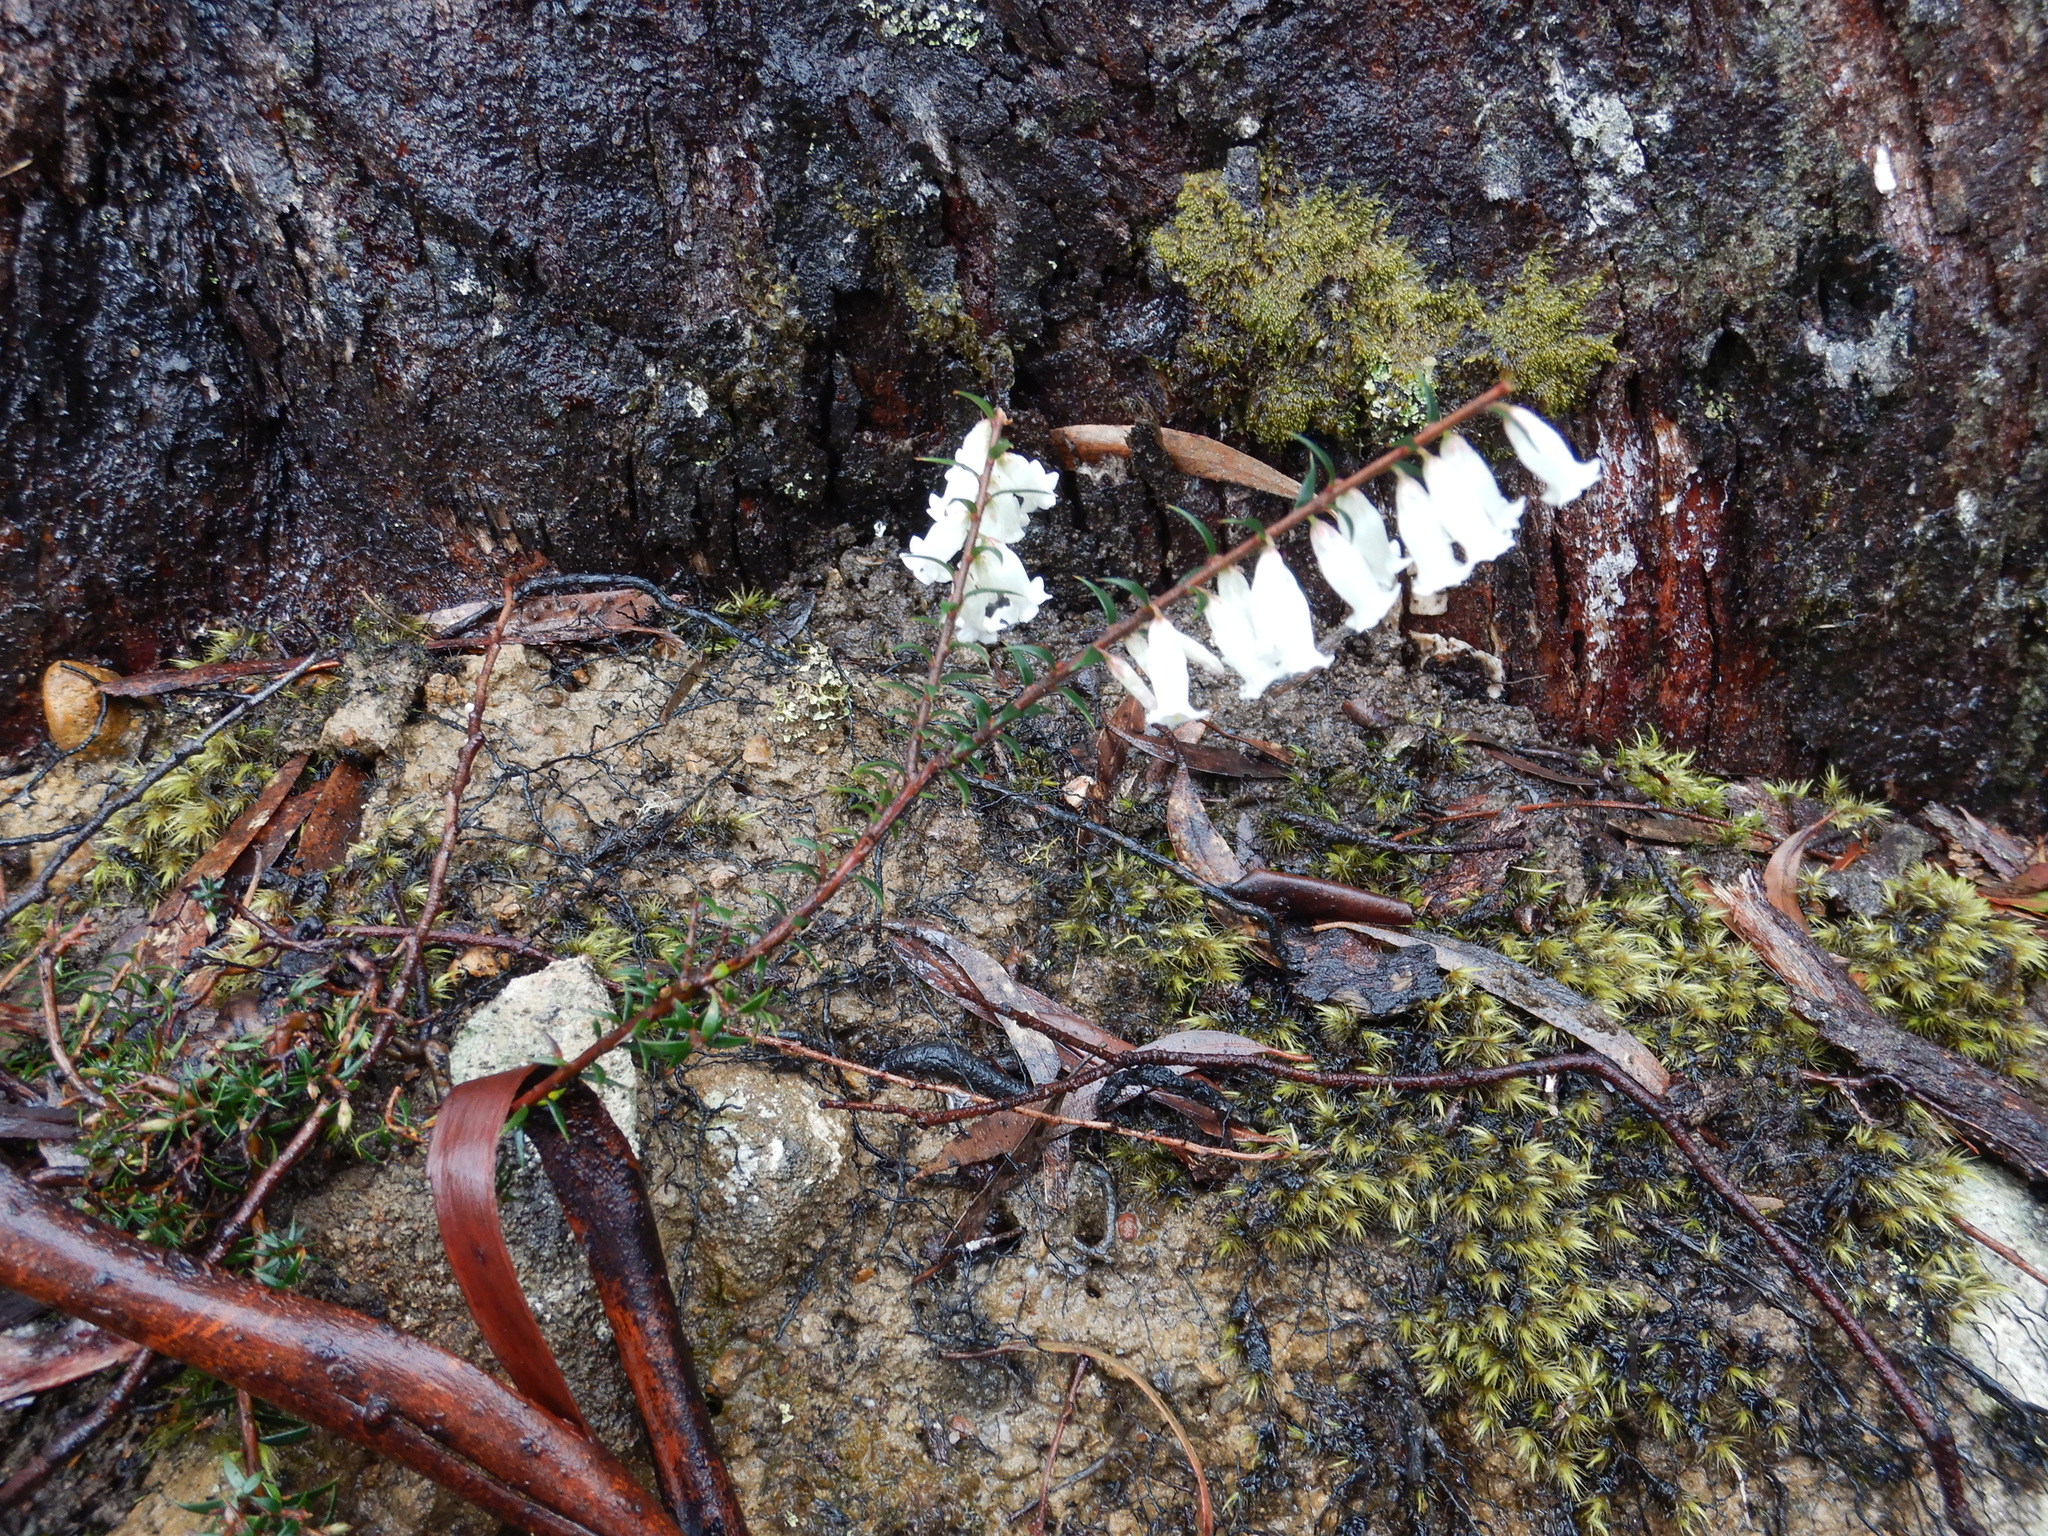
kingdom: Plantae
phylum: Tracheophyta
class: Magnoliopsida
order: Ericales
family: Ericaceae
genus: Epacris
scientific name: Epacris impressa
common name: Common-heath
